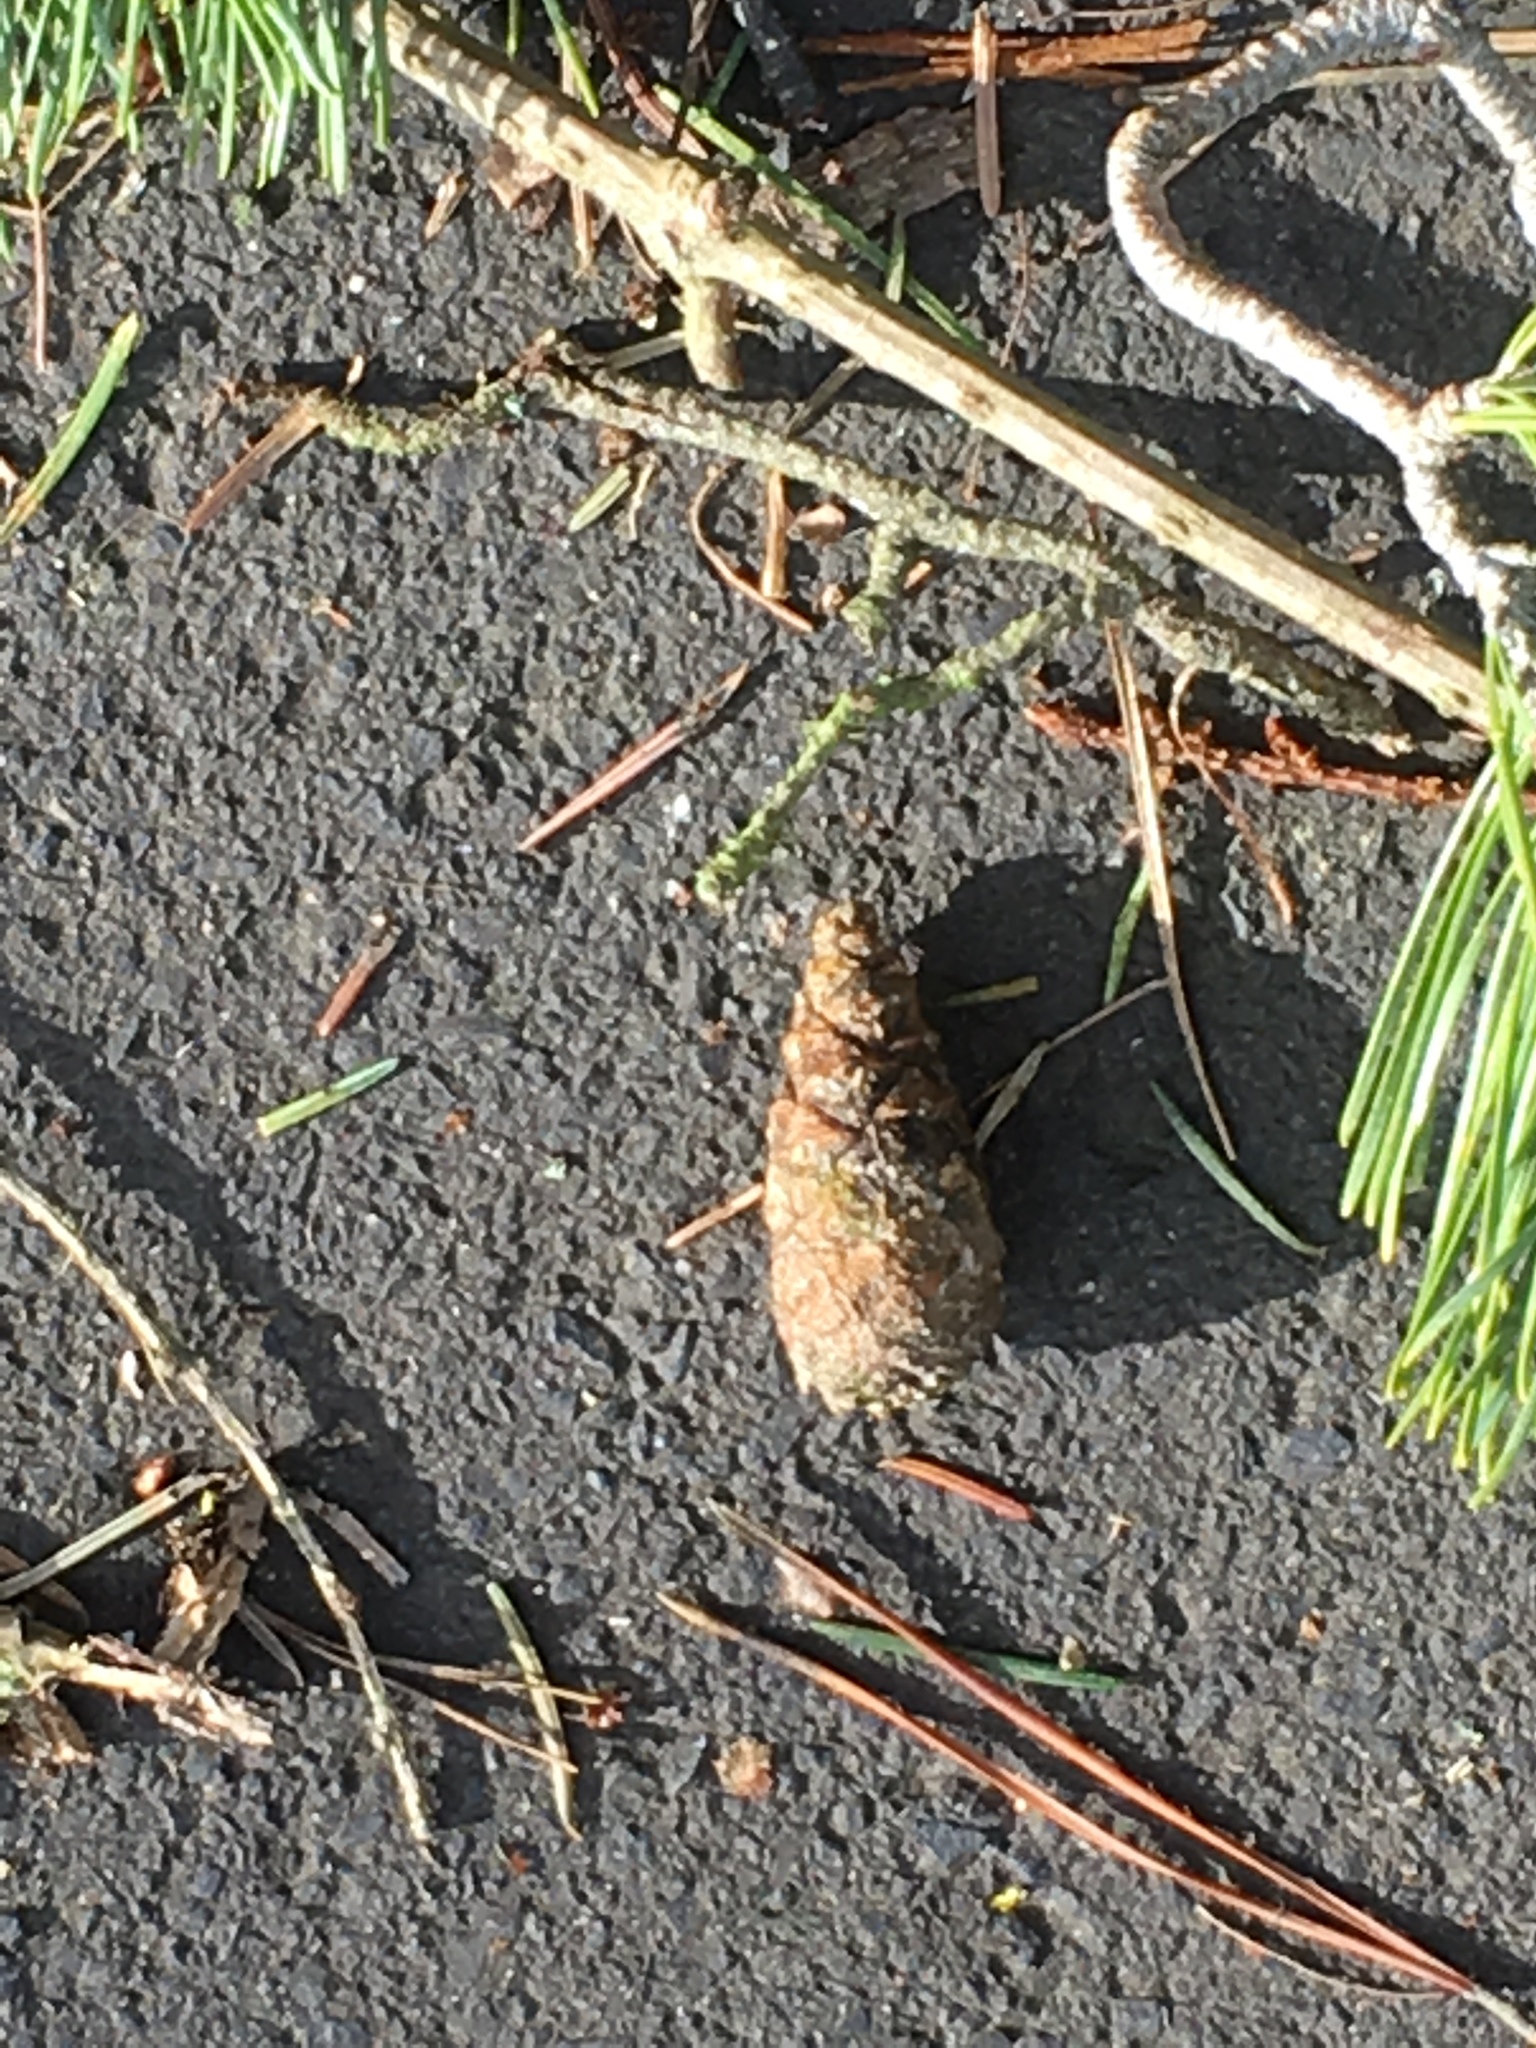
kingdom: Plantae
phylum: Tracheophyta
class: Pinopsida
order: Pinales
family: Pinaceae
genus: Pinus
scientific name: Pinus sylvestris
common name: Scots pine
